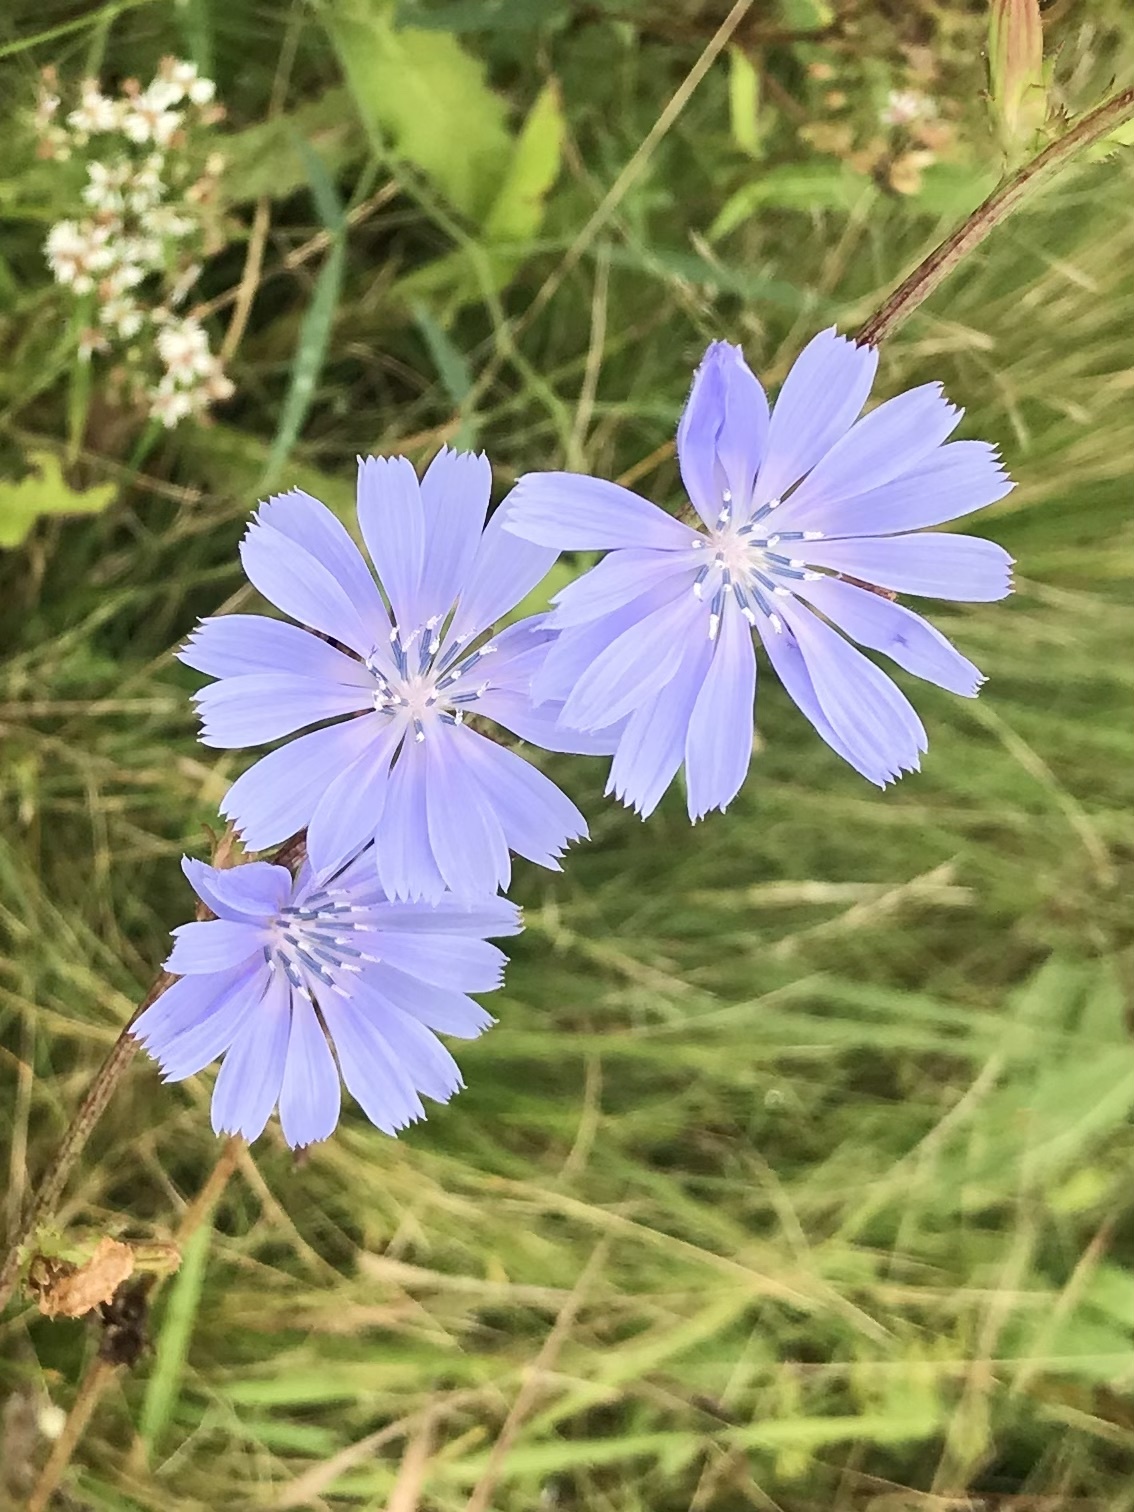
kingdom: Plantae
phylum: Tracheophyta
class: Magnoliopsida
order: Asterales
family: Asteraceae
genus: Cichorium
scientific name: Cichorium intybus
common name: Chicory
